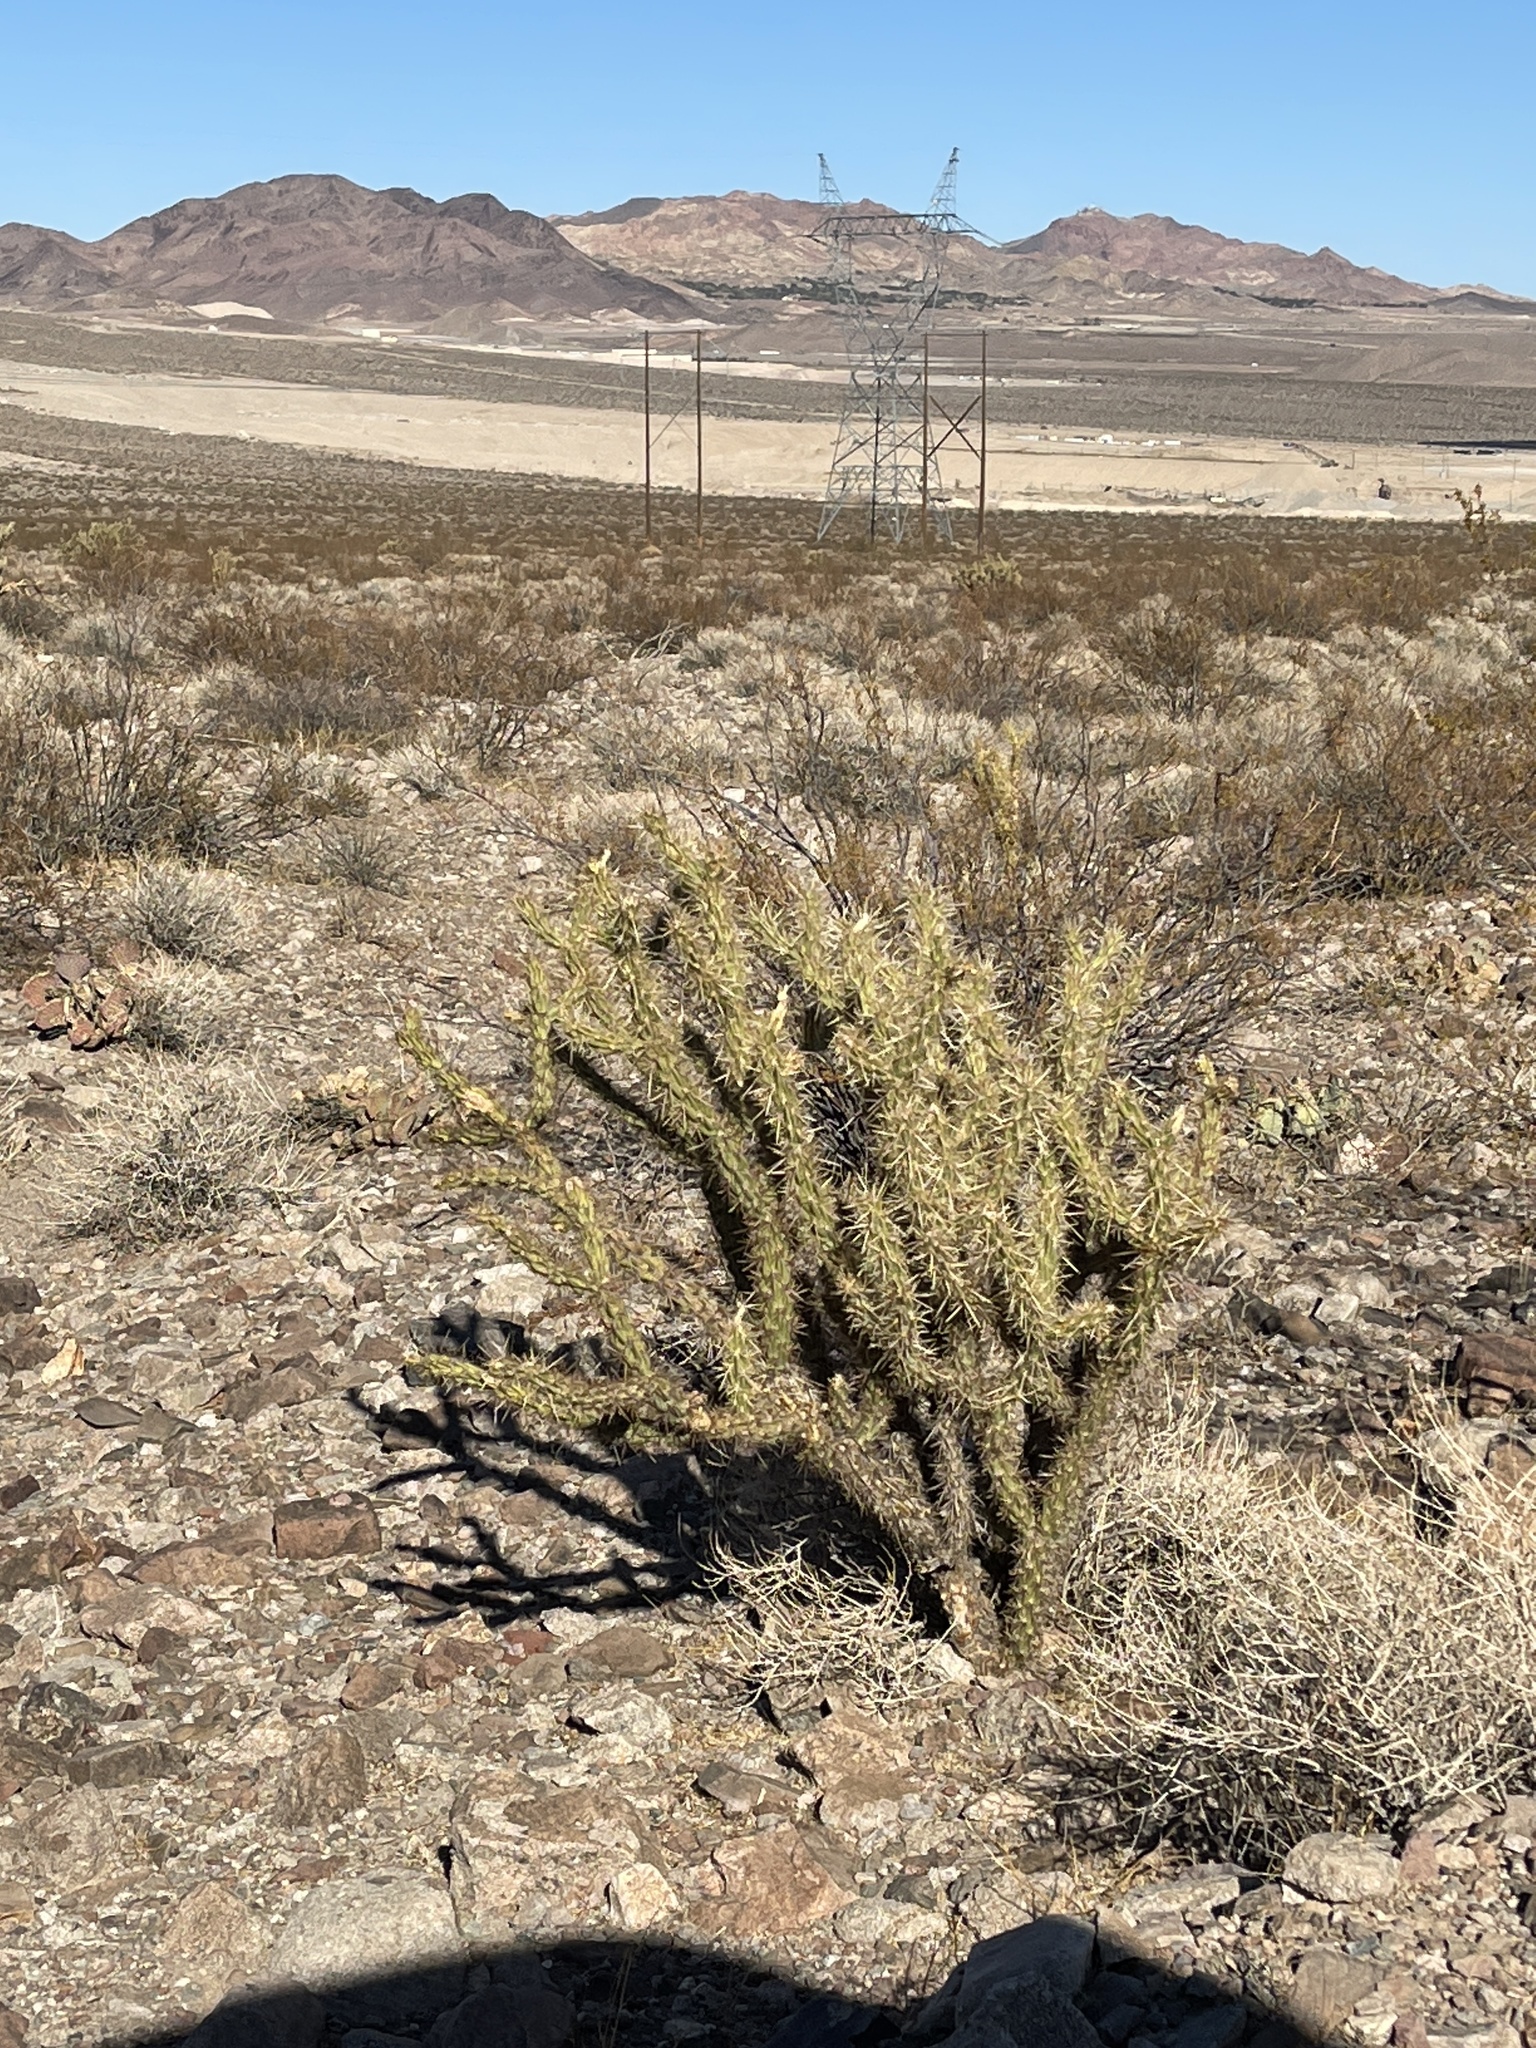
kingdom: Plantae
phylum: Tracheophyta
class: Magnoliopsida
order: Caryophyllales
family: Cactaceae
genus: Cylindropuntia
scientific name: Cylindropuntia acanthocarpa
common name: Buckhorn cholla
